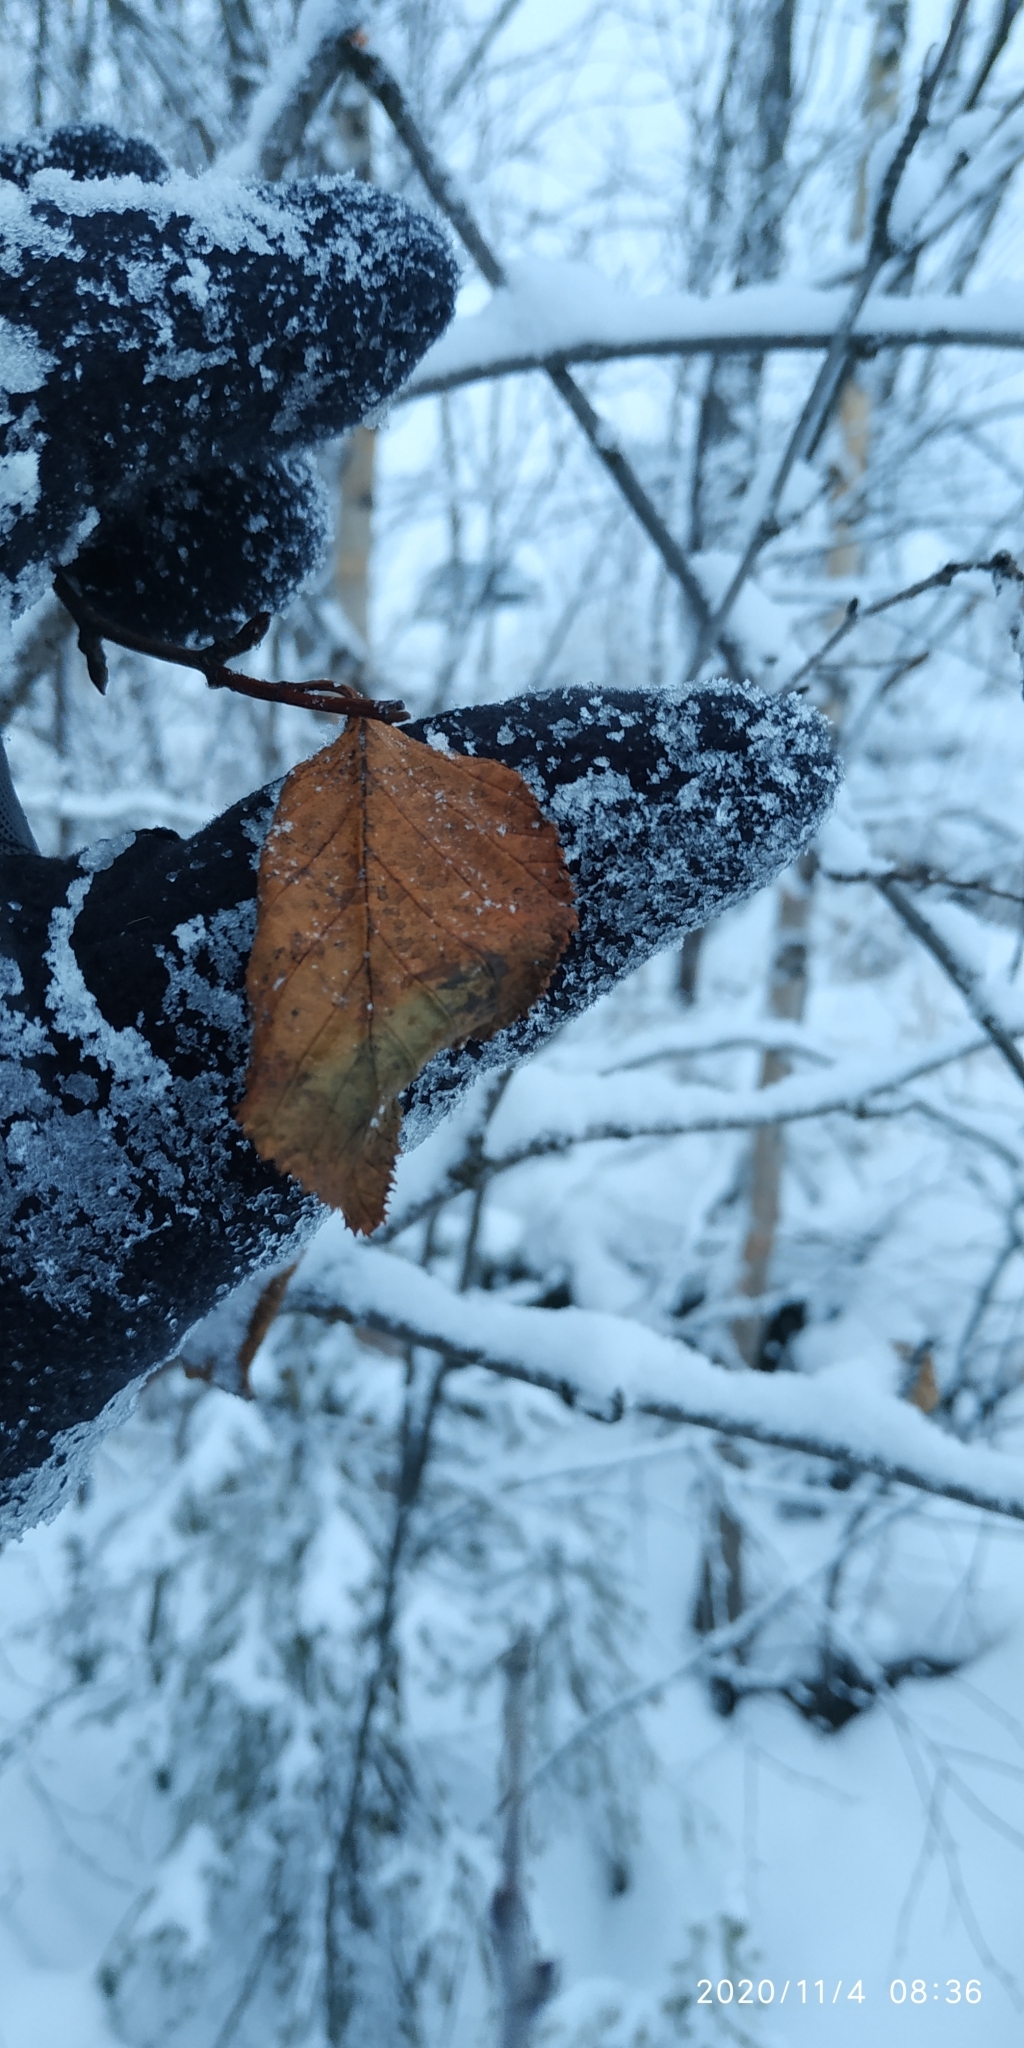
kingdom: Plantae
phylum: Tracheophyta
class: Magnoliopsida
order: Fagales
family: Betulaceae
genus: Alnus
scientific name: Alnus alnobetula
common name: Green alder
